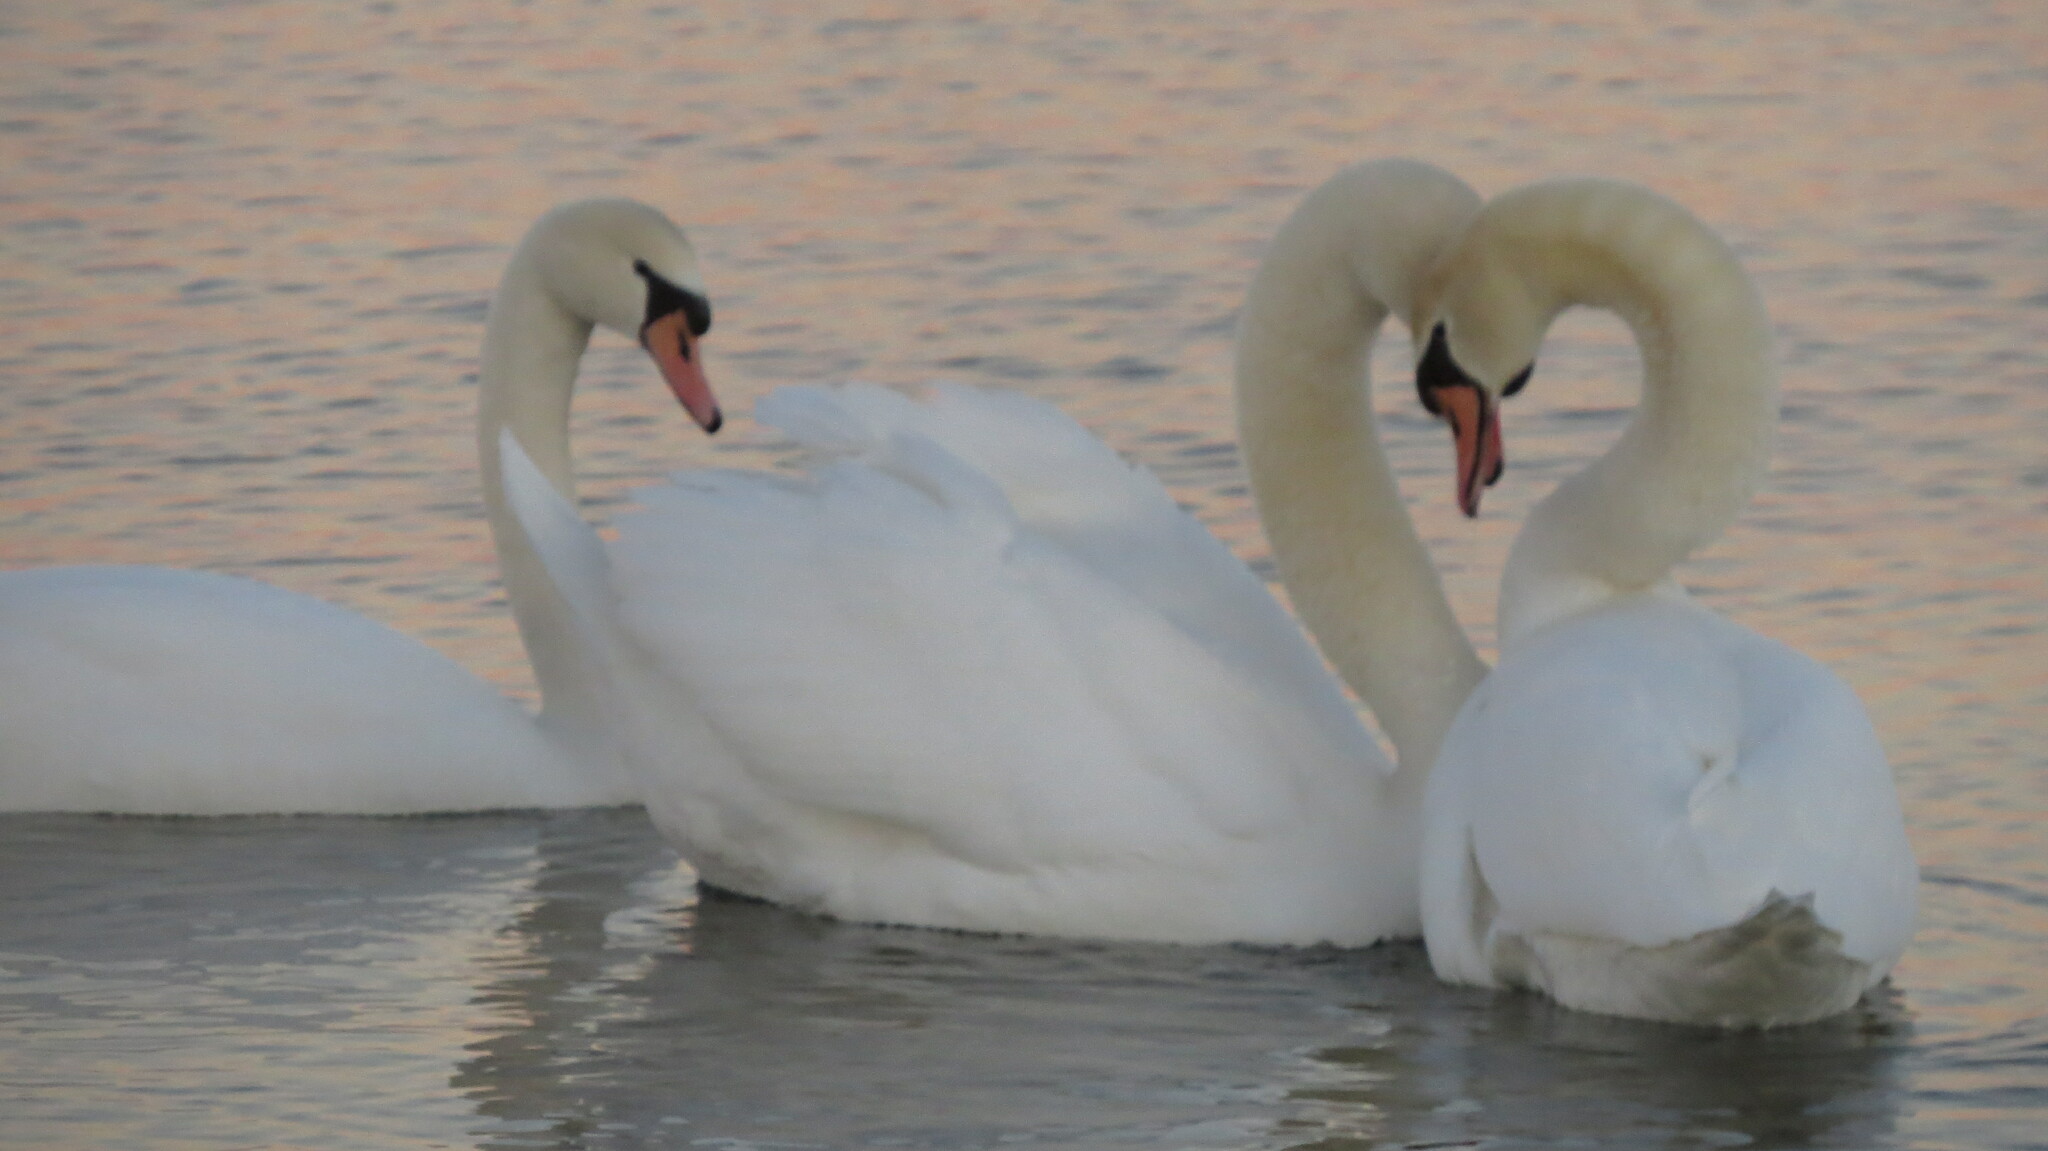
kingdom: Animalia
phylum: Chordata
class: Aves
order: Anseriformes
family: Anatidae
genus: Cygnus
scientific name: Cygnus olor
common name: Mute swan
